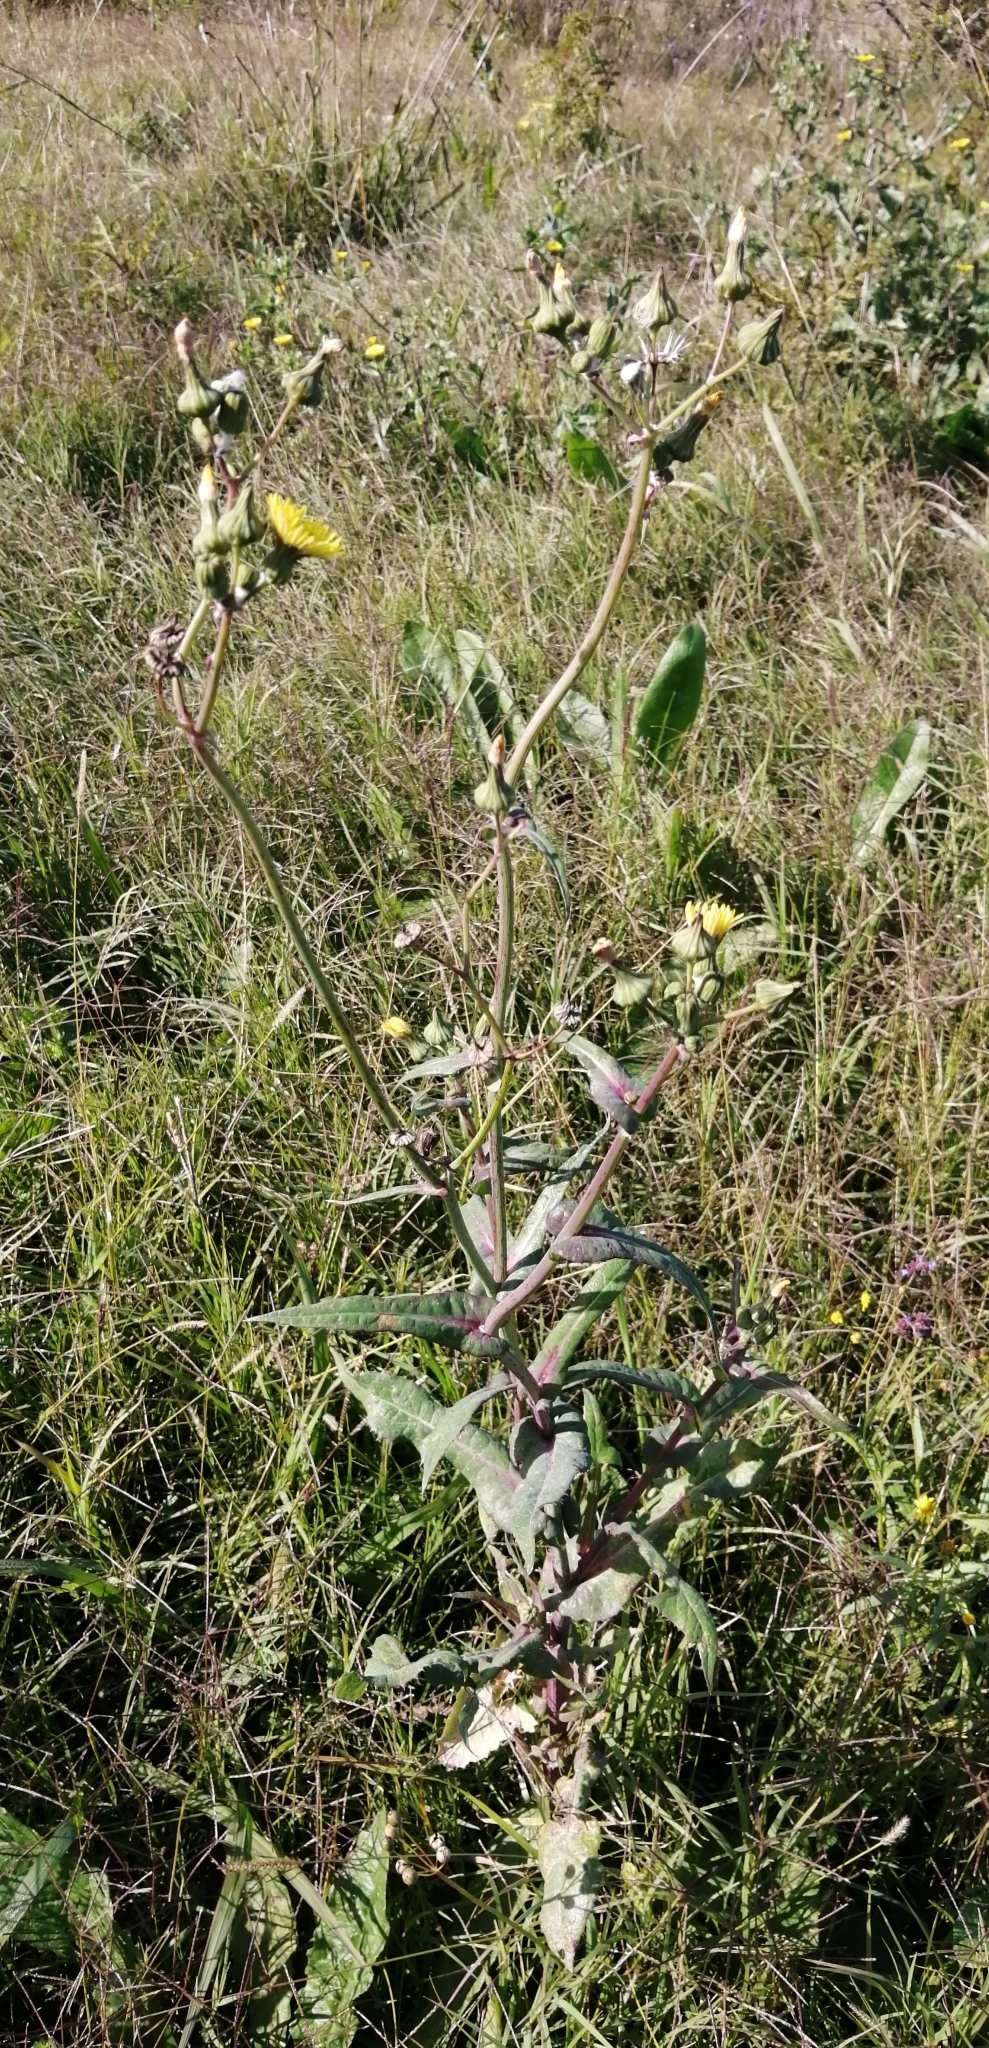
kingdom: Plantae
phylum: Tracheophyta
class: Magnoliopsida
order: Asterales
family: Asteraceae
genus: Sonchus
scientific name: Sonchus oleraceus
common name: Common sowthistle
